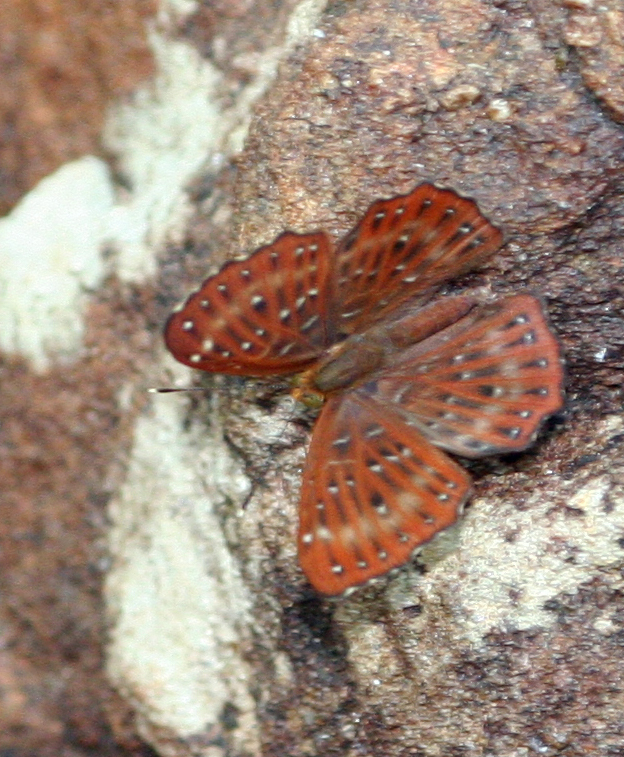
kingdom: Animalia
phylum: Arthropoda
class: Insecta
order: Lepidoptera
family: Riodinidae
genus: Zemeros
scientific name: Zemeros flegyas
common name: Punchinello
